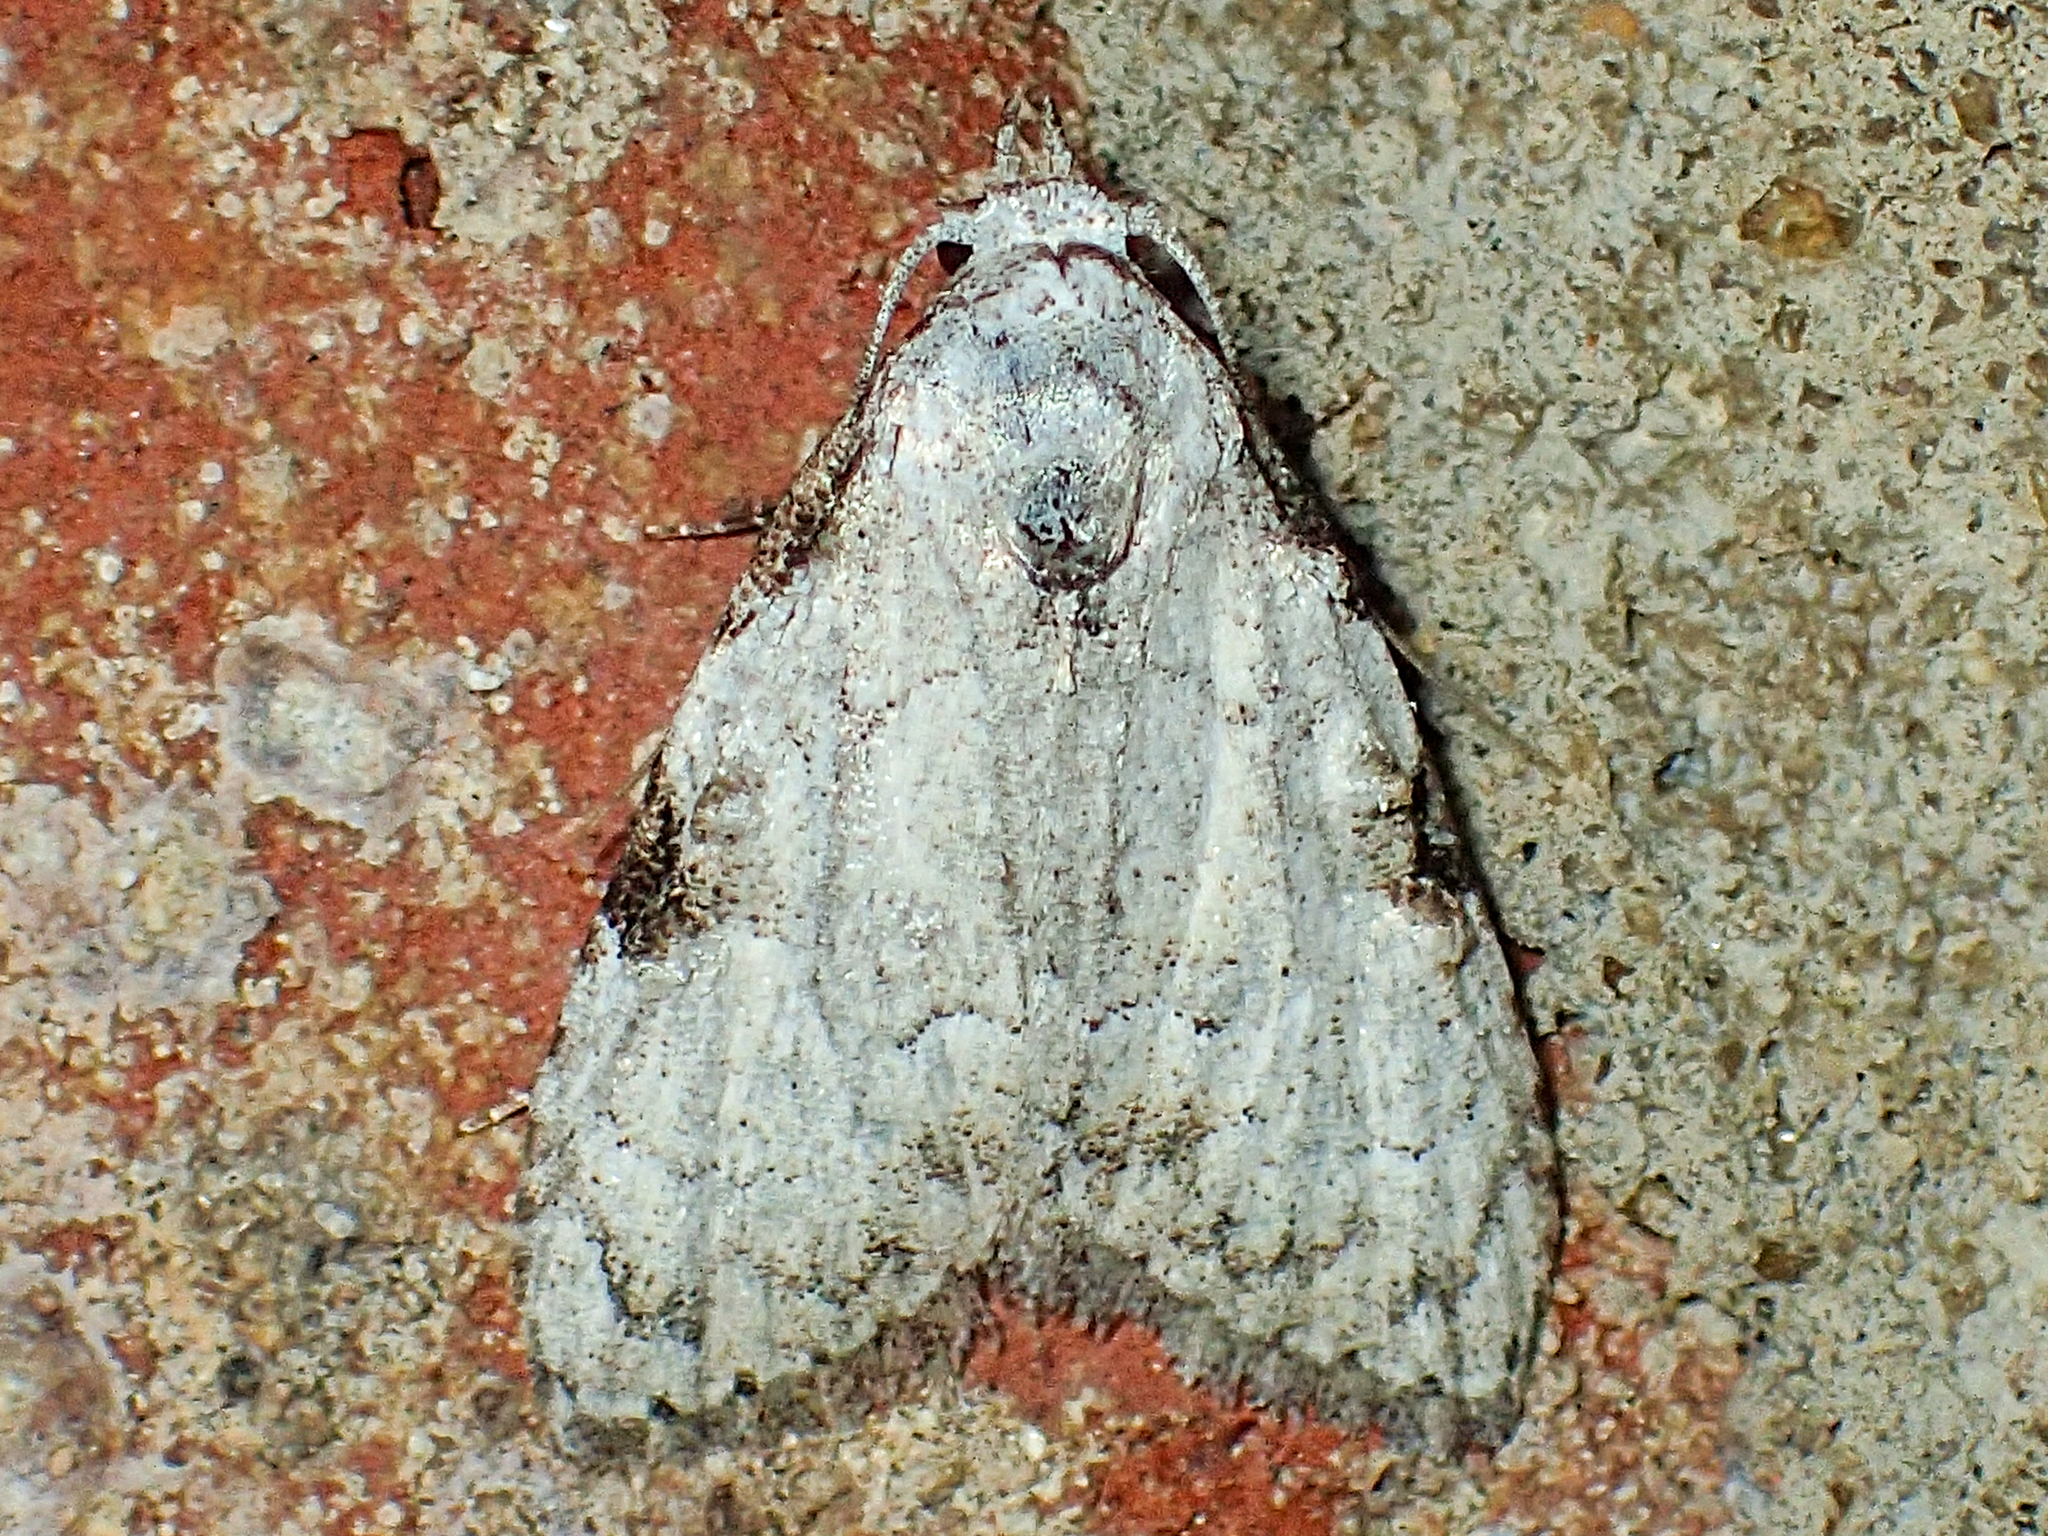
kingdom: Animalia
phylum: Arthropoda
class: Insecta
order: Lepidoptera
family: Nolidae
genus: Meganola
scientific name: Meganola minuscula
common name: Confused meganola moth
